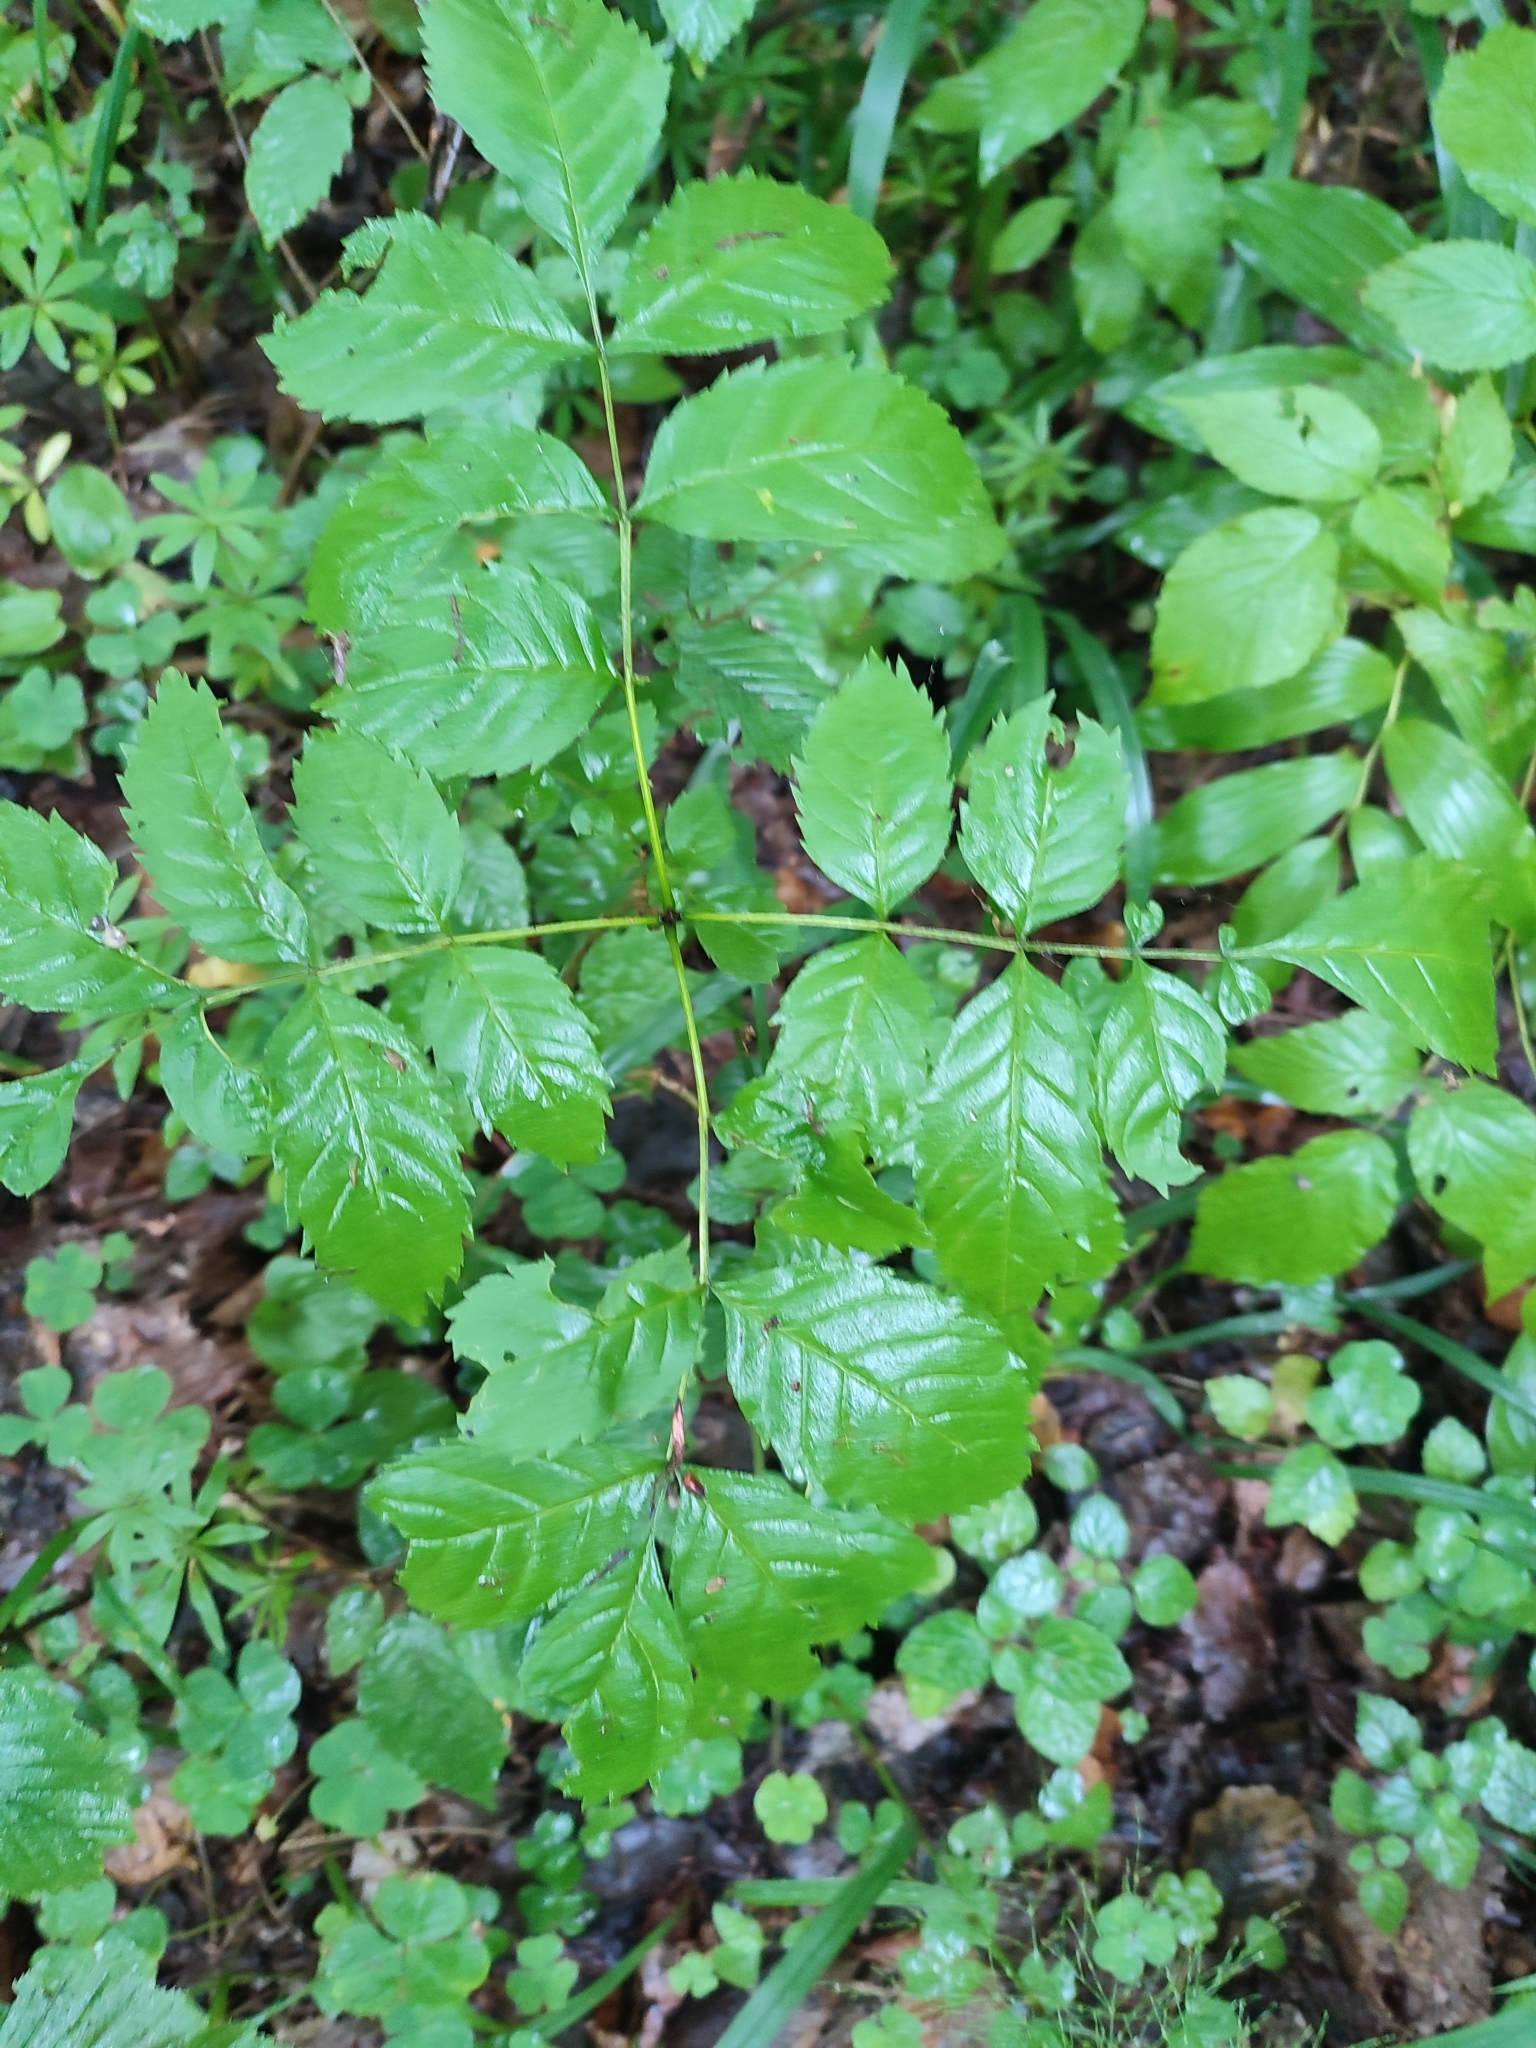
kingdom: Plantae
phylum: Tracheophyta
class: Magnoliopsida
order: Lamiales
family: Oleaceae
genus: Fraxinus
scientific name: Fraxinus excelsior
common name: European ash
